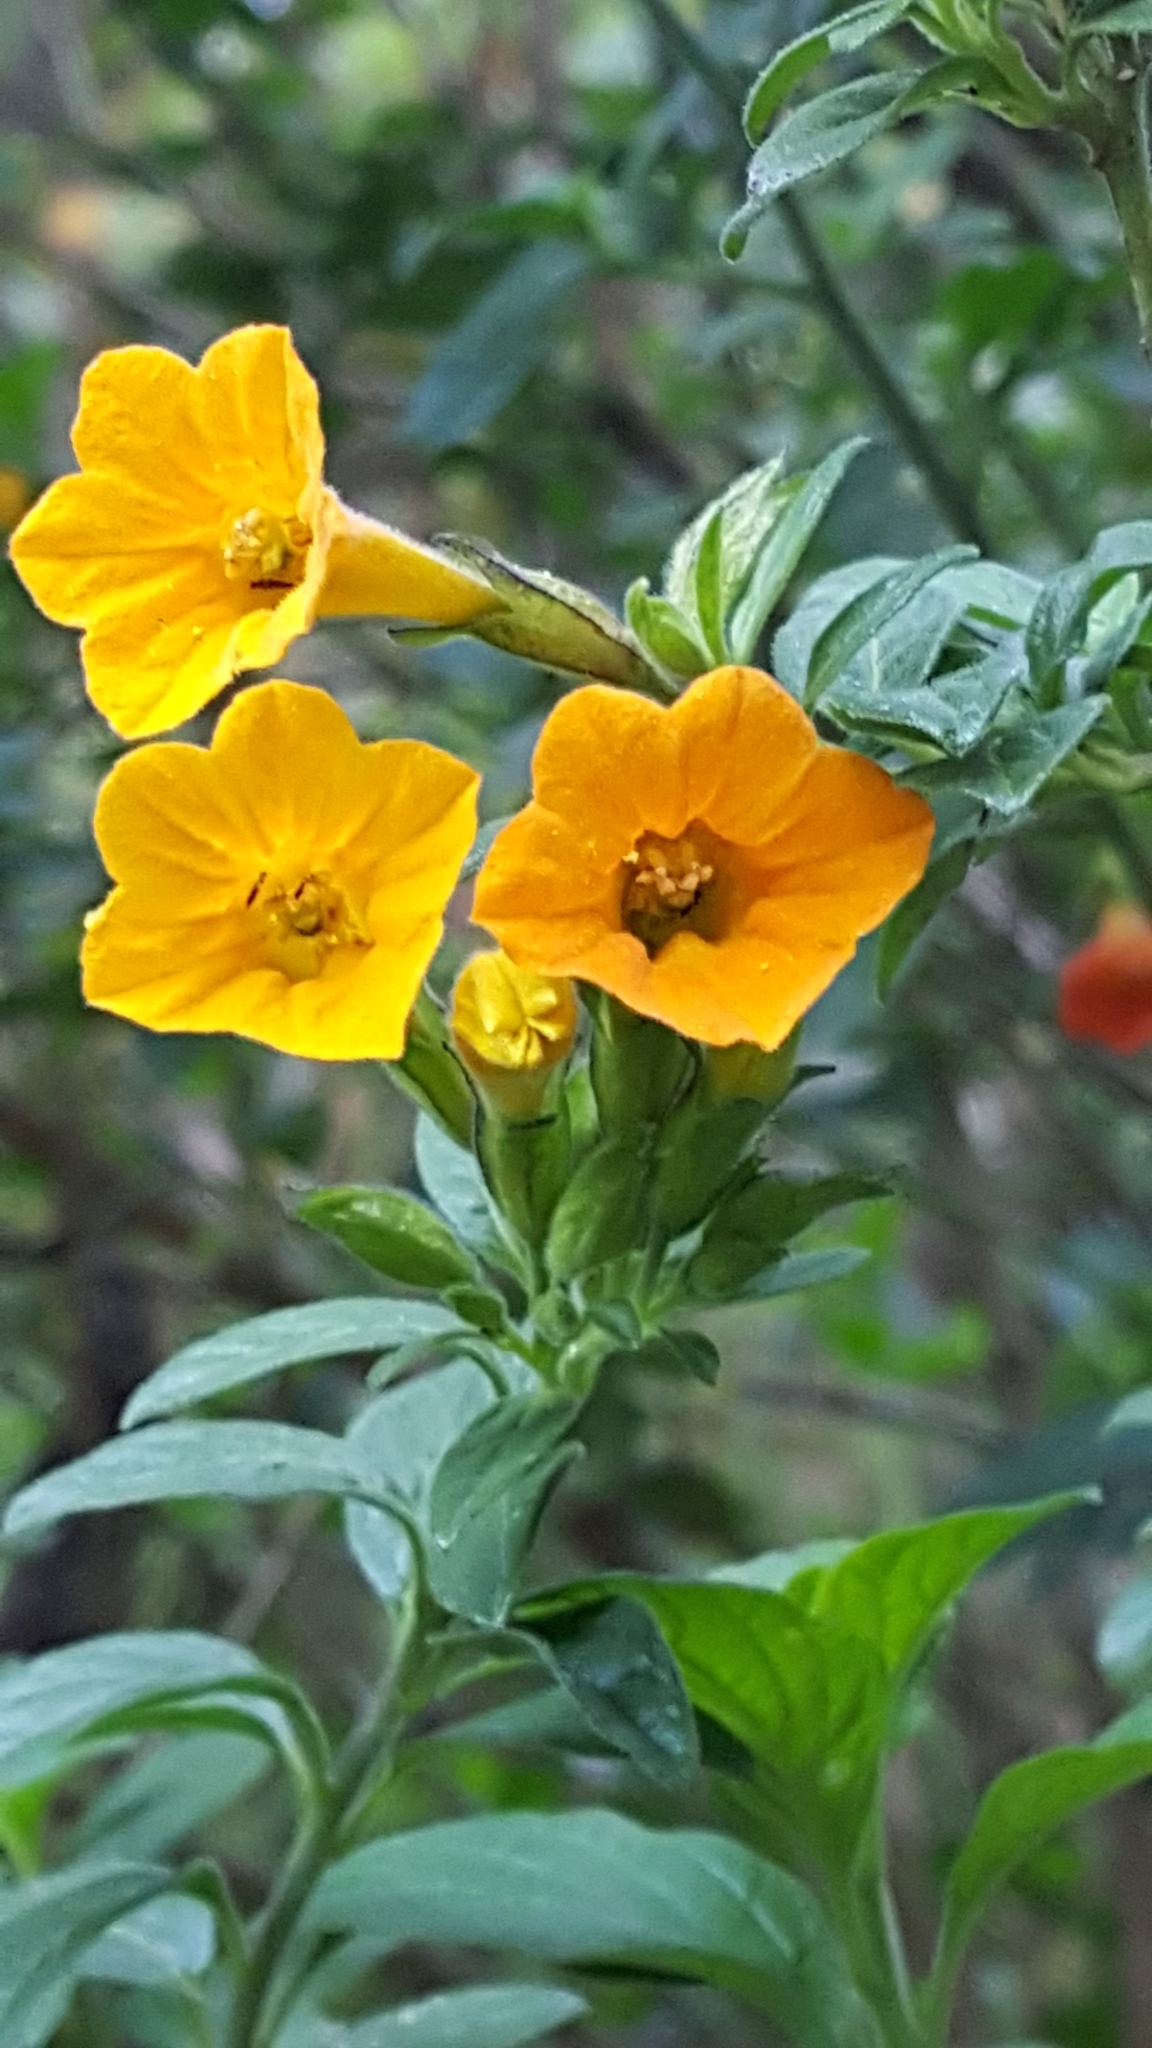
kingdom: Plantae
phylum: Tracheophyta
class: Magnoliopsida
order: Solanales
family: Solanaceae
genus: Streptosolen
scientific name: Streptosolen jamesonii
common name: Marmalade bush
